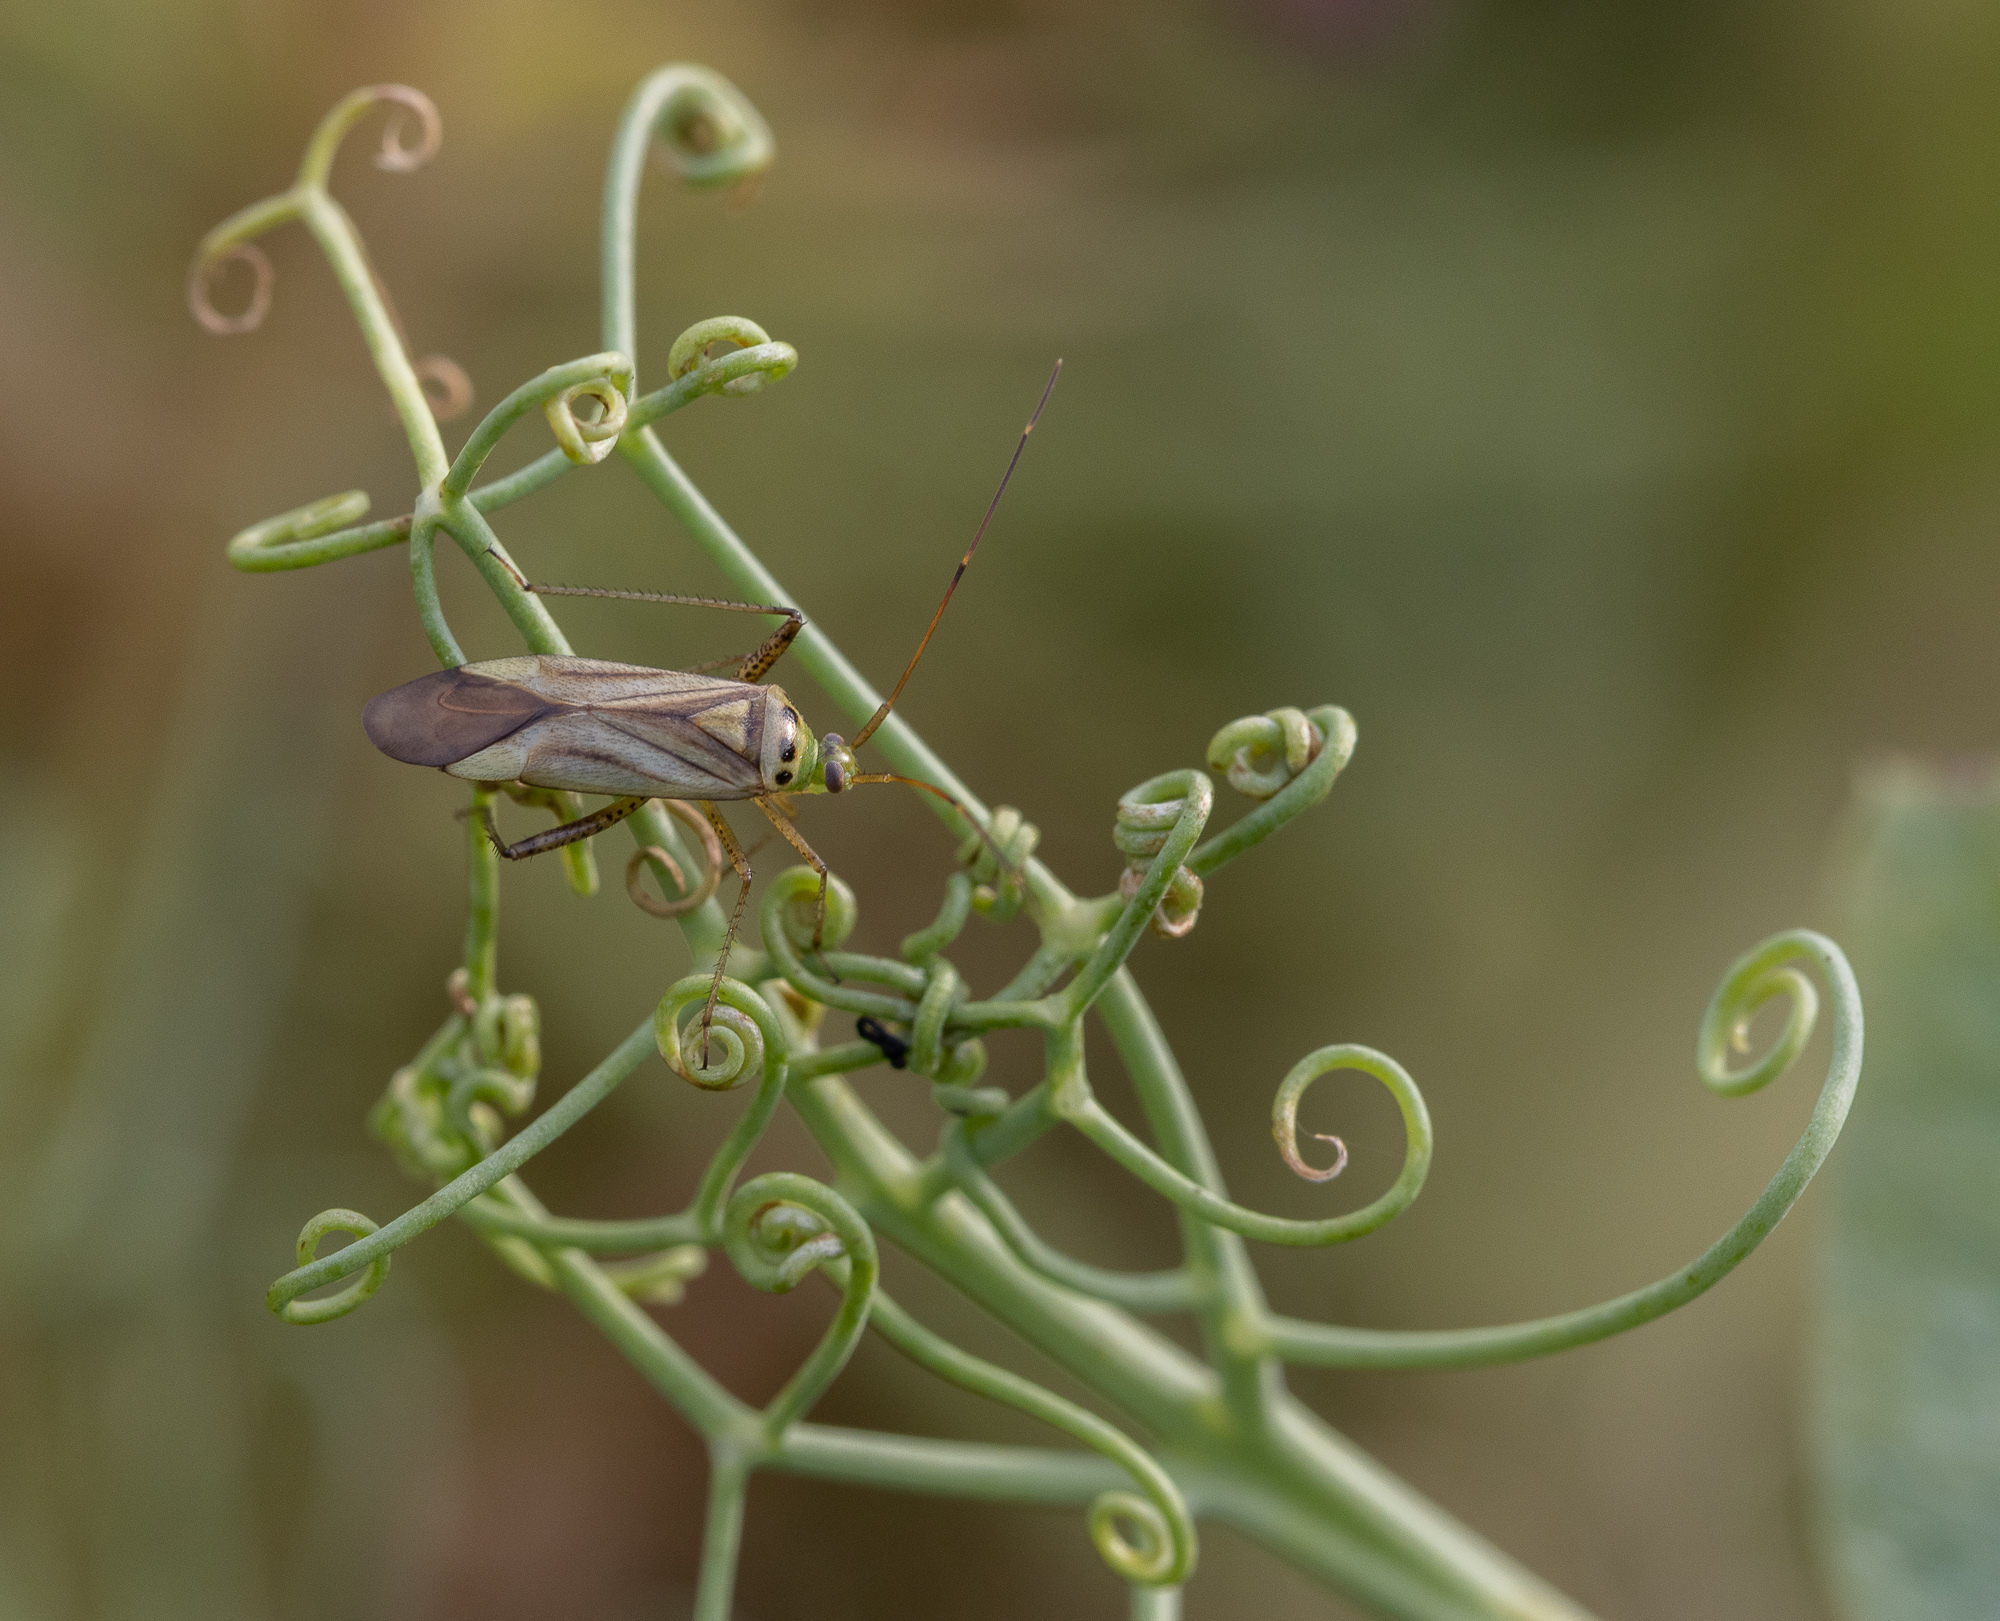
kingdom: Animalia
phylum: Arthropoda
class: Insecta
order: Hemiptera
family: Miridae
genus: Adelphocoris
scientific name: Adelphocoris quadripunctatus
